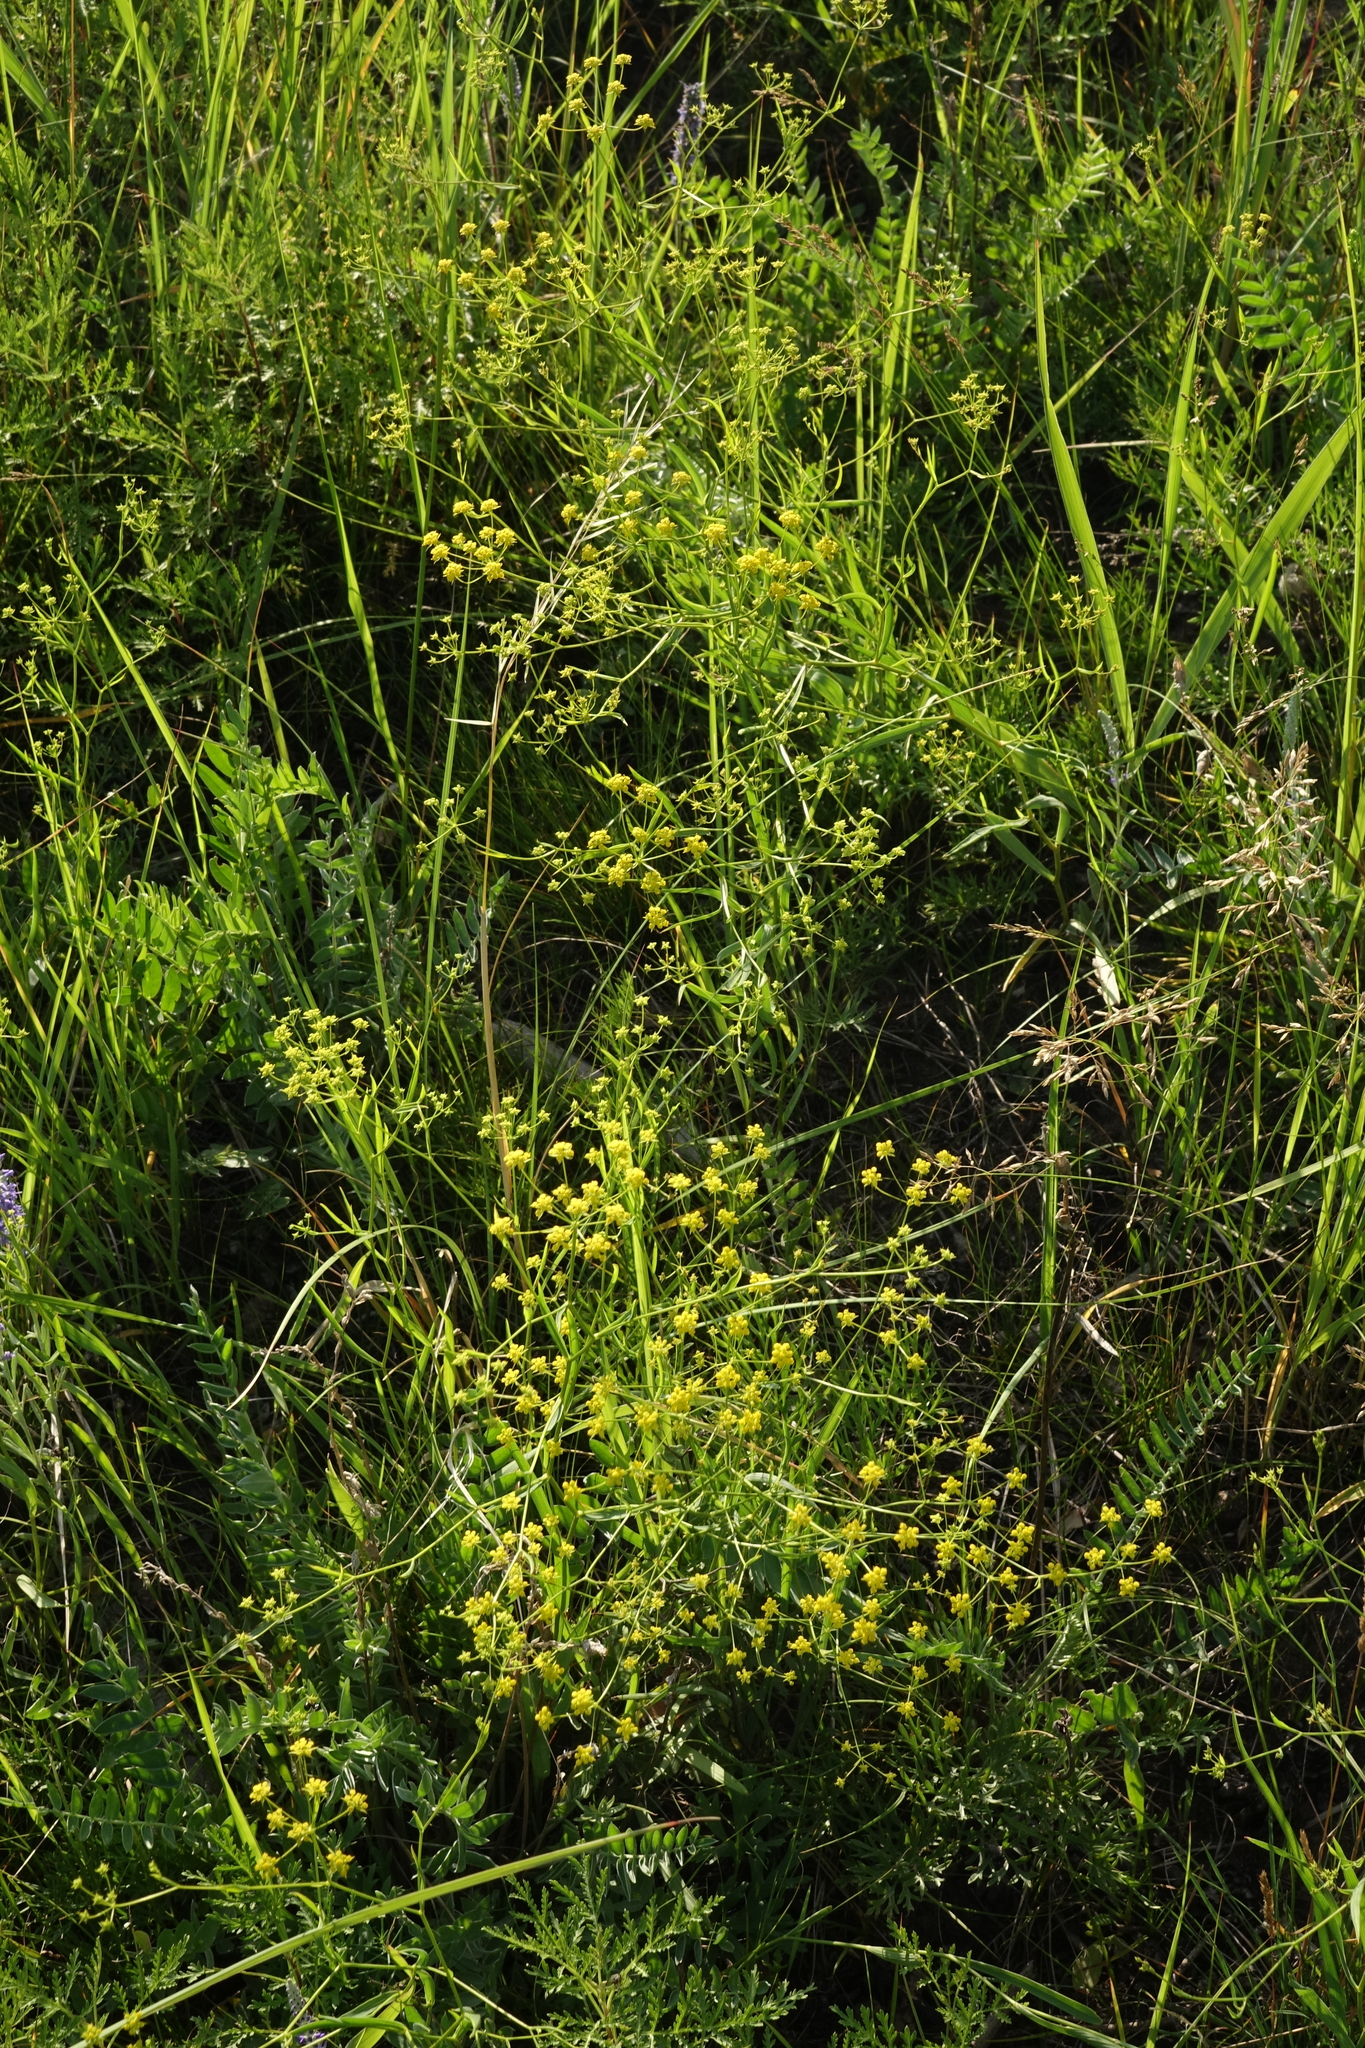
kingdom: Plantae
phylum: Tracheophyta
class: Magnoliopsida
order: Apiales
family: Apiaceae
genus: Bupleurum
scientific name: Bupleurum scorzonerifolium
